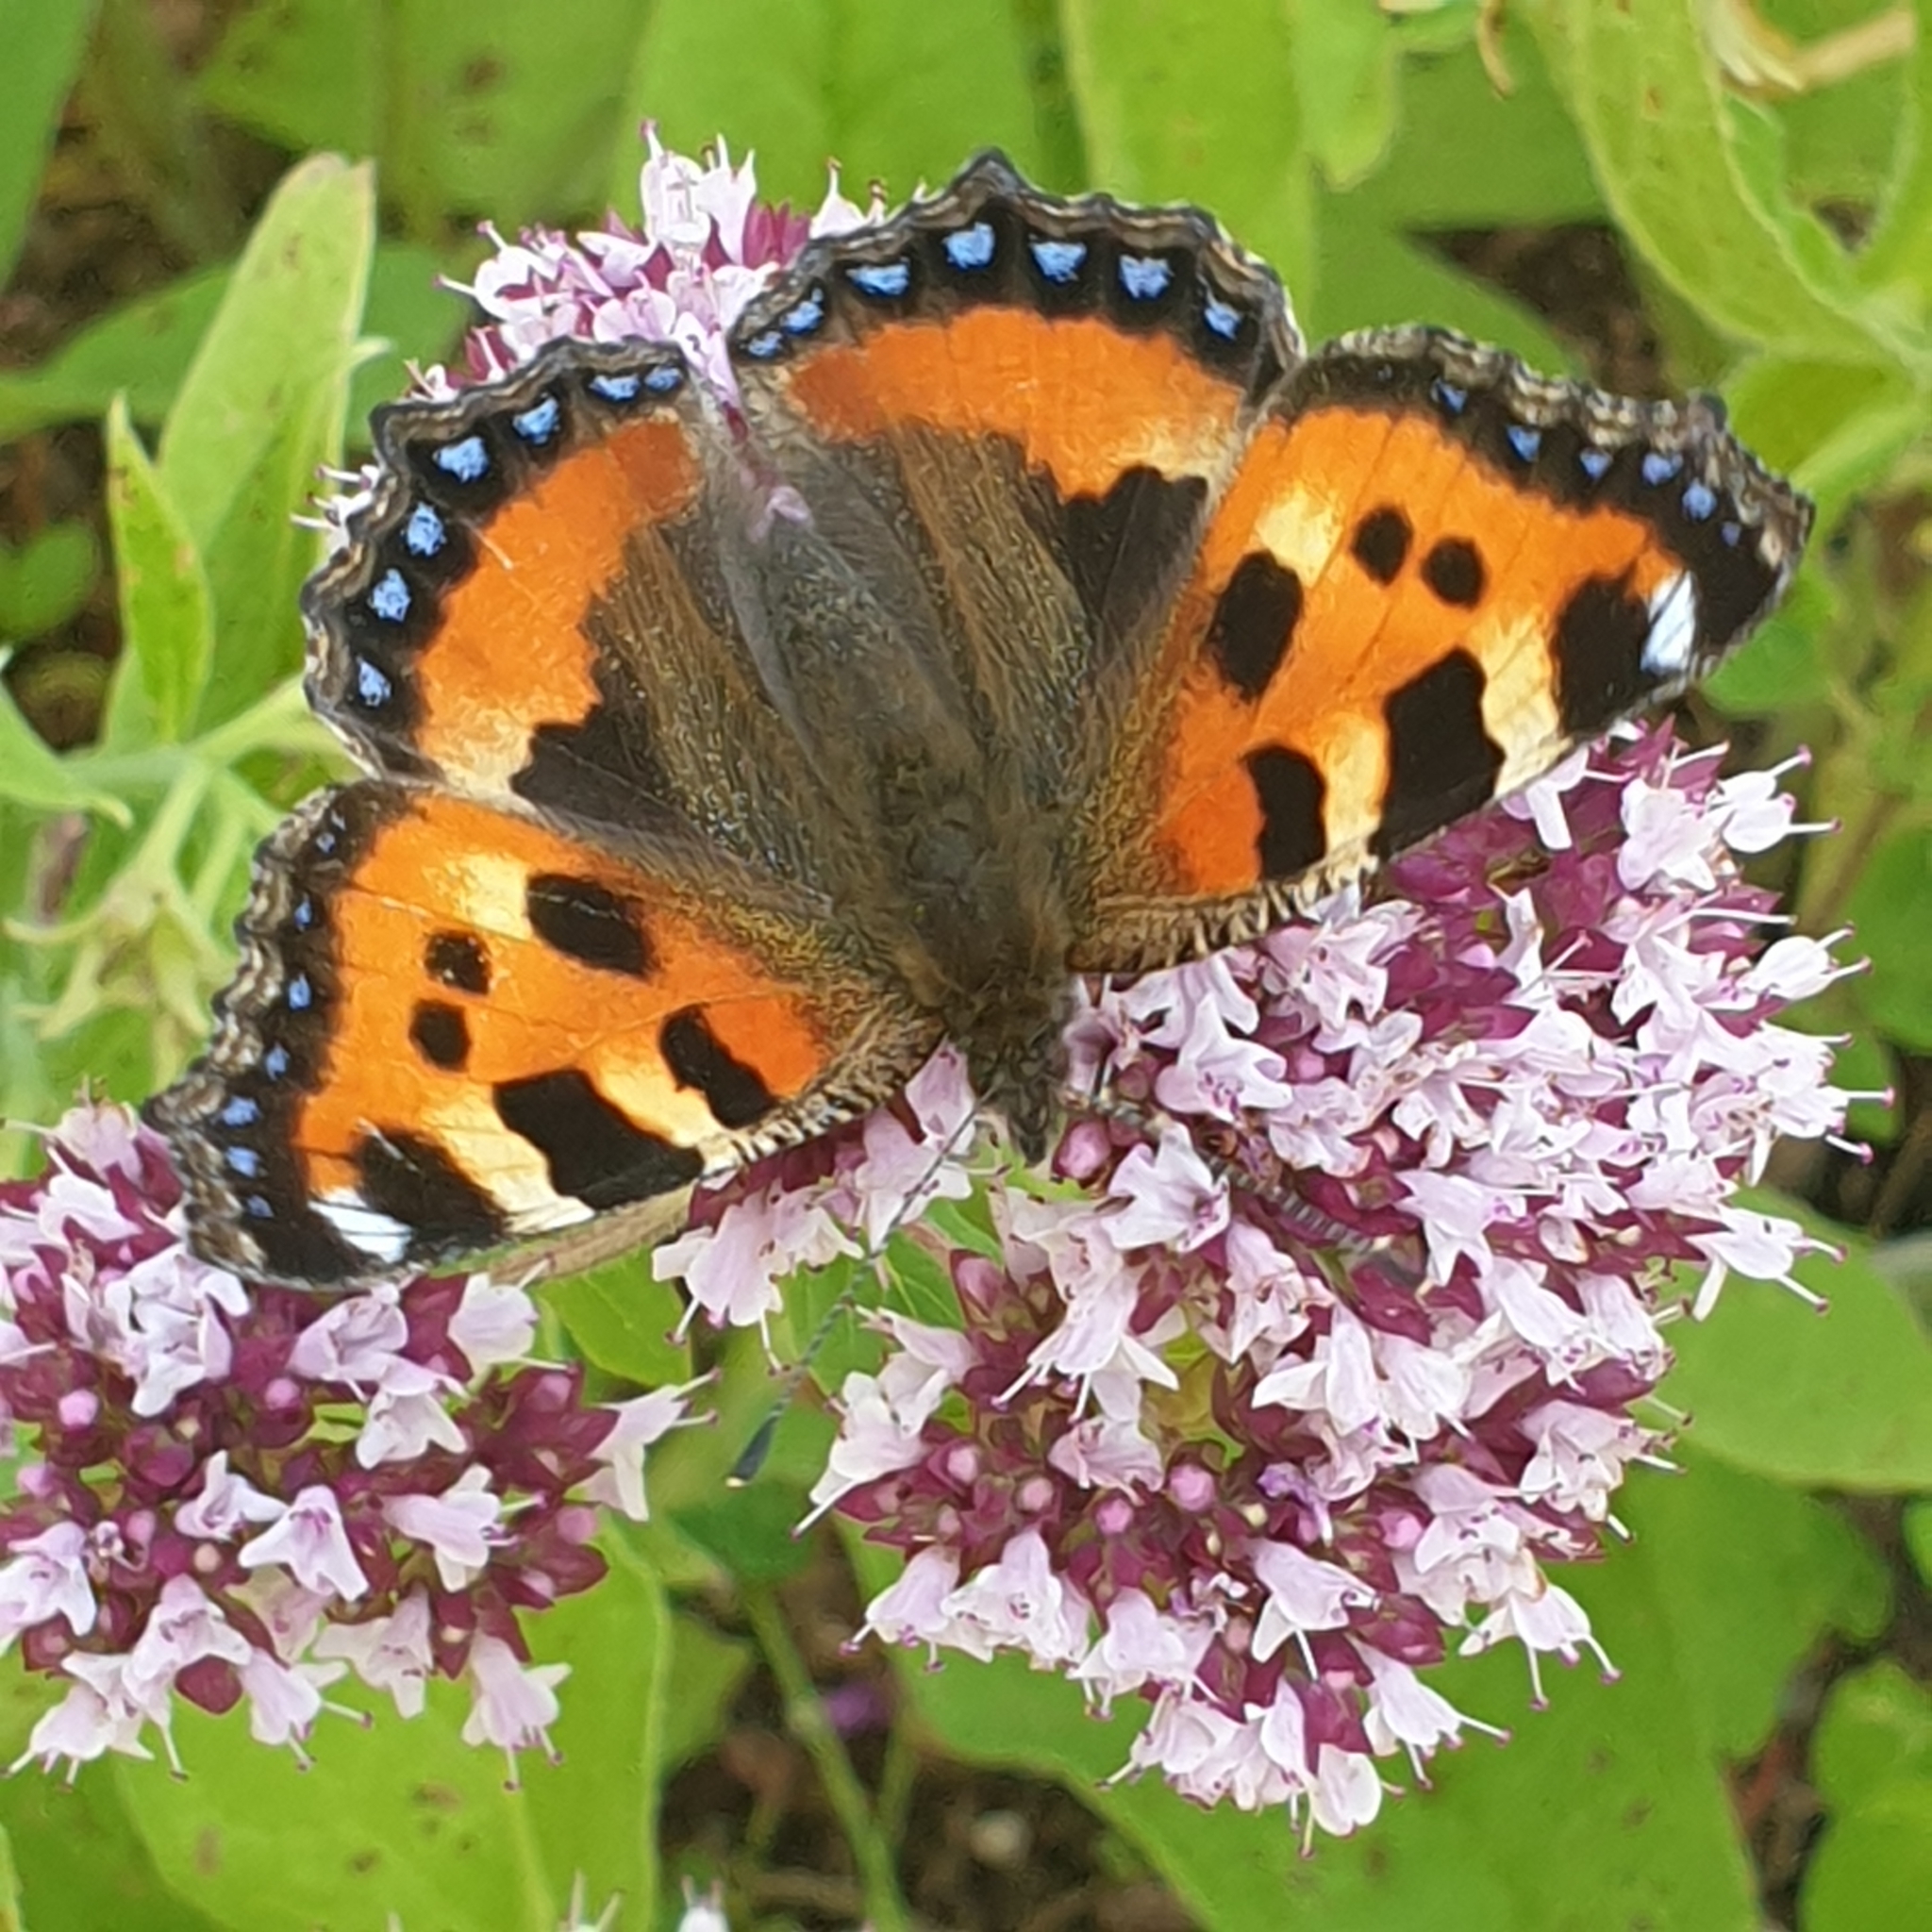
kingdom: Animalia
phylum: Arthropoda
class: Insecta
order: Lepidoptera
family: Nymphalidae
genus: Aglais
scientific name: Aglais urticae
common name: Small tortoiseshell
